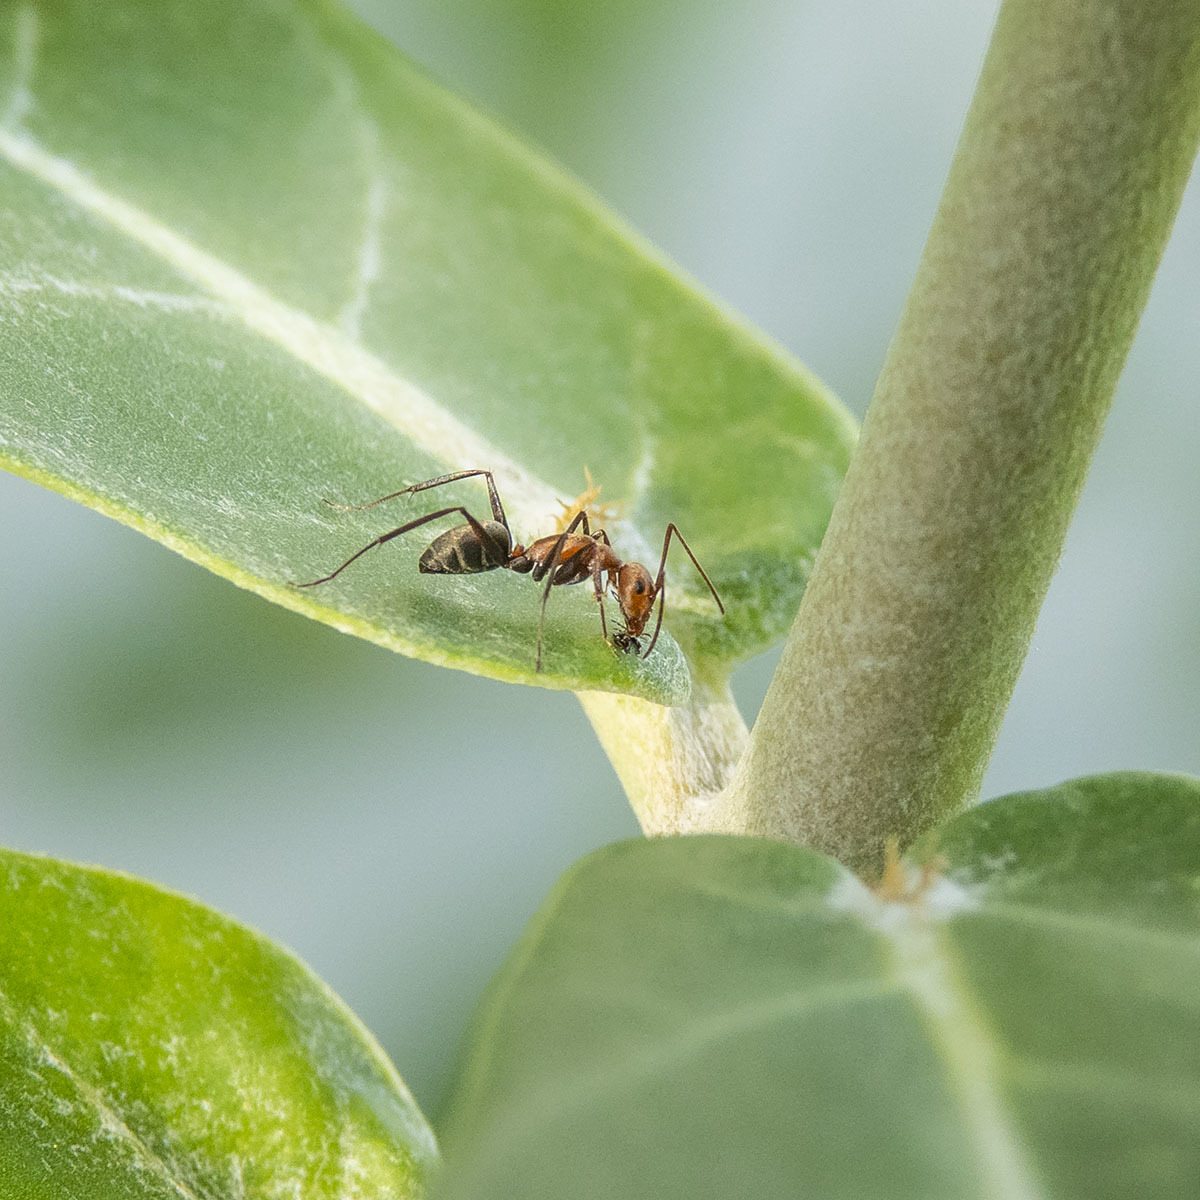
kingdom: Animalia
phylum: Arthropoda
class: Insecta
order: Hymenoptera
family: Formicidae
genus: Camponotus
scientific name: Camponotus rufoglaucus
